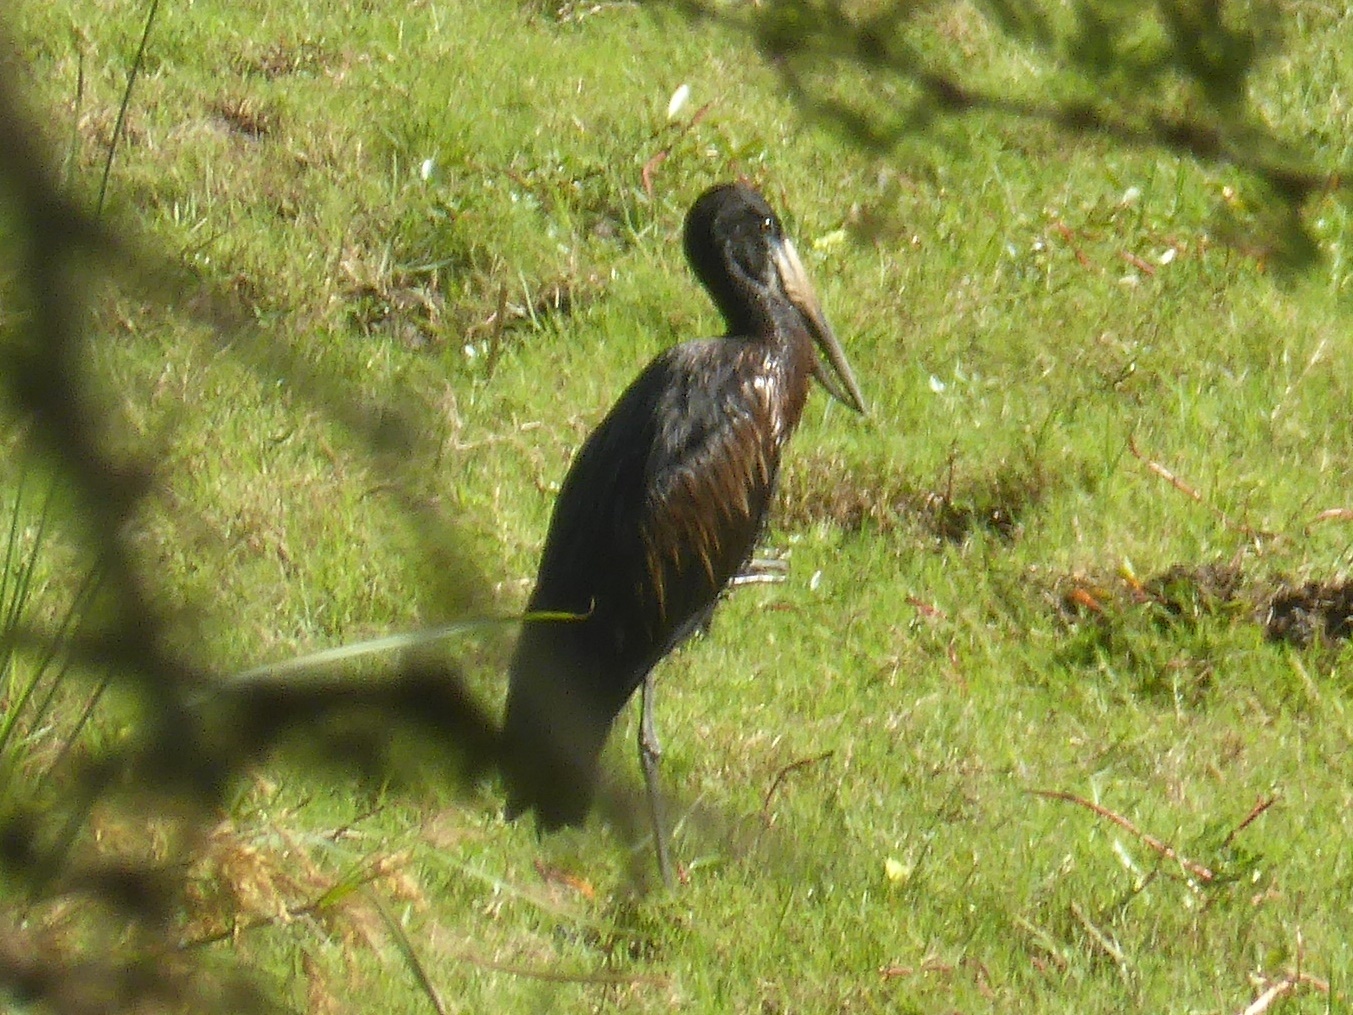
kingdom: Animalia
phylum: Chordata
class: Aves
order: Ciconiiformes
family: Ciconiidae
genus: Anastomus
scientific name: Anastomus lamelligerus
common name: African openbill
